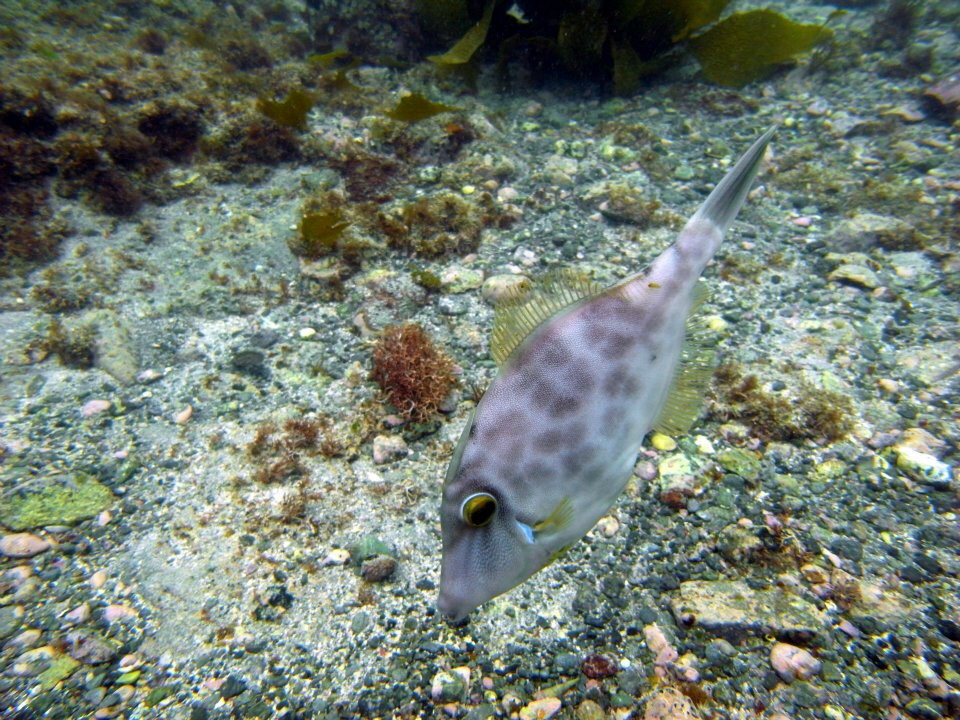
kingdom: Animalia
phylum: Chordata
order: Tetraodontiformes
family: Monacanthidae
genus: Meuschenia
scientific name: Meuschenia scaber
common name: Cosmopolitan leatherjacket
